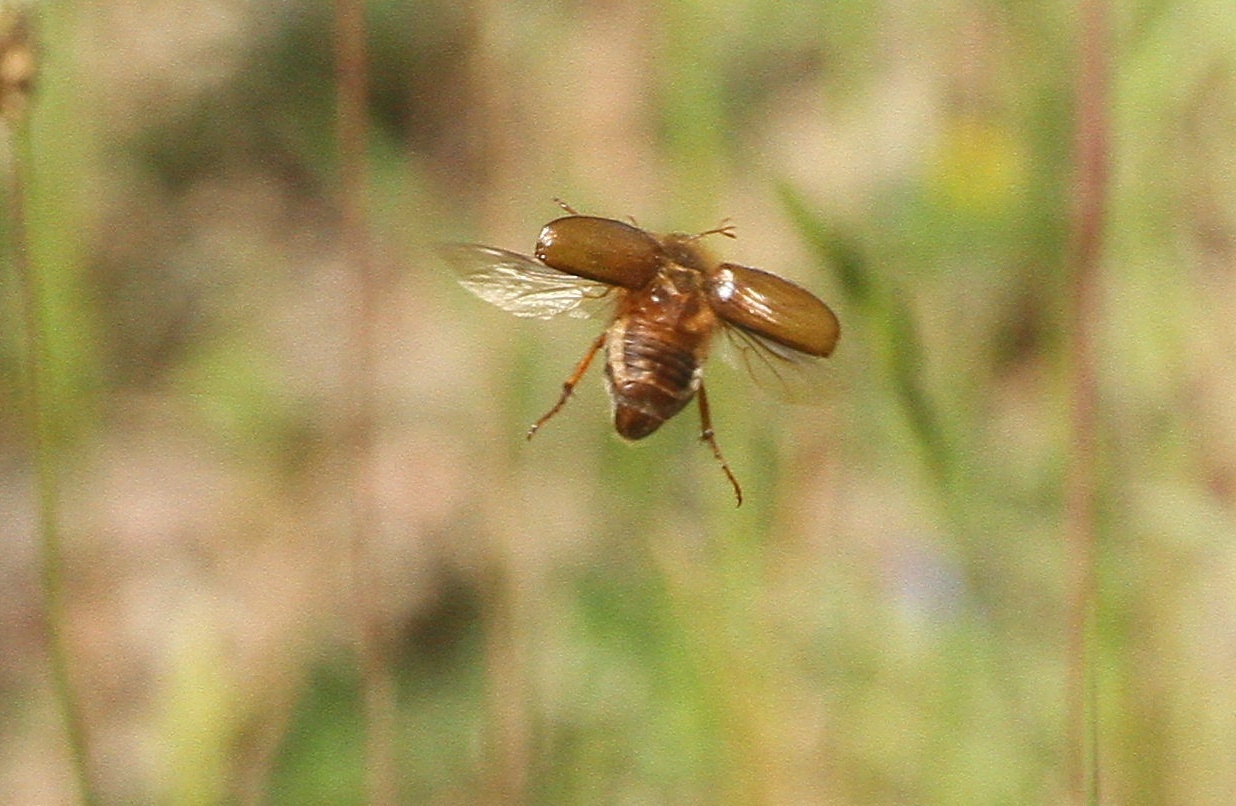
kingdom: Animalia
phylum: Arthropoda
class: Insecta
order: Coleoptera
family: Scarabaeidae
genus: Amphimallon
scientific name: Amphimallon fallenii
